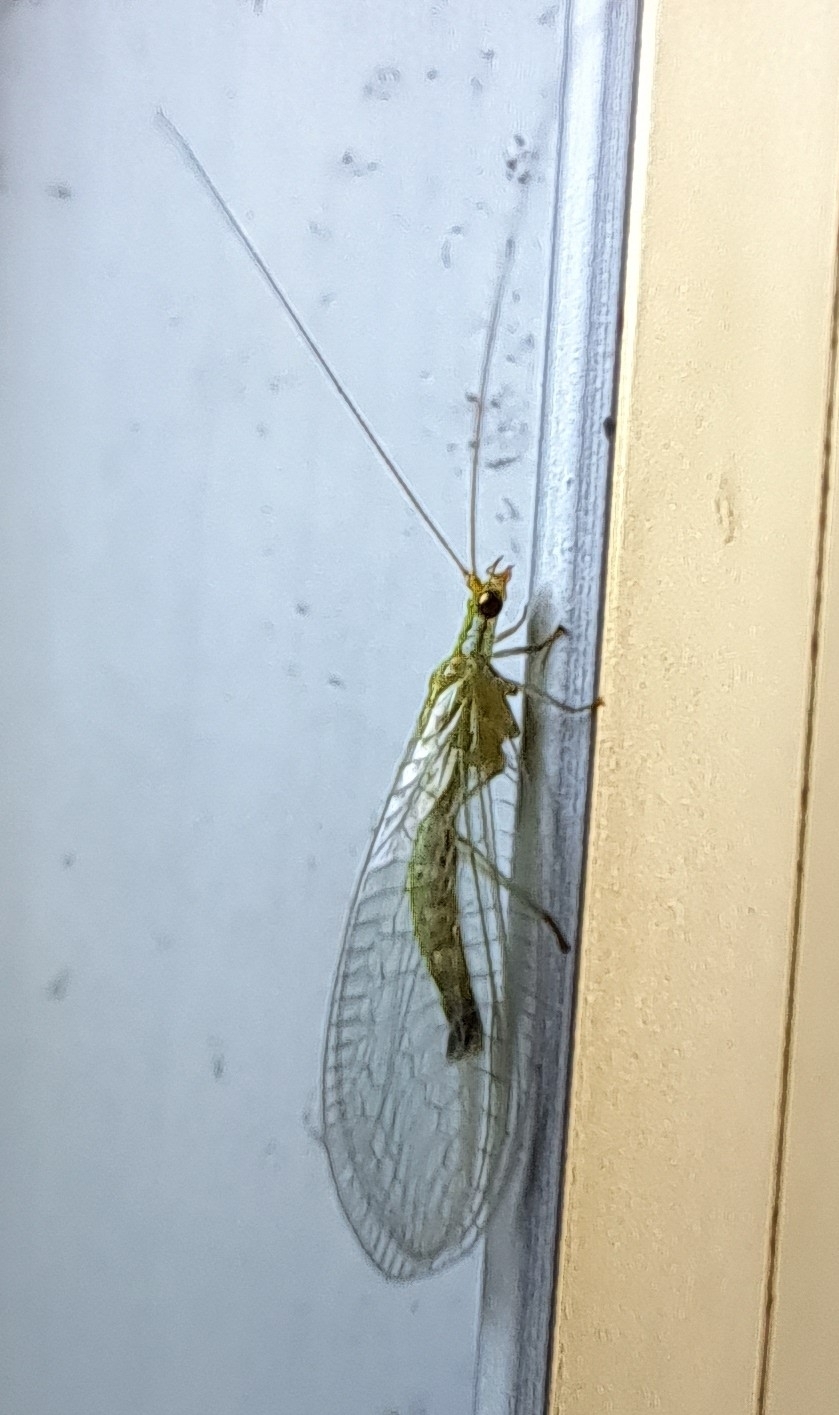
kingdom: Animalia
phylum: Arthropoda
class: Insecta
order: Neuroptera
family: Chrysopidae
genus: Mallada
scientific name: Mallada basalis
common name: Green lacewing
